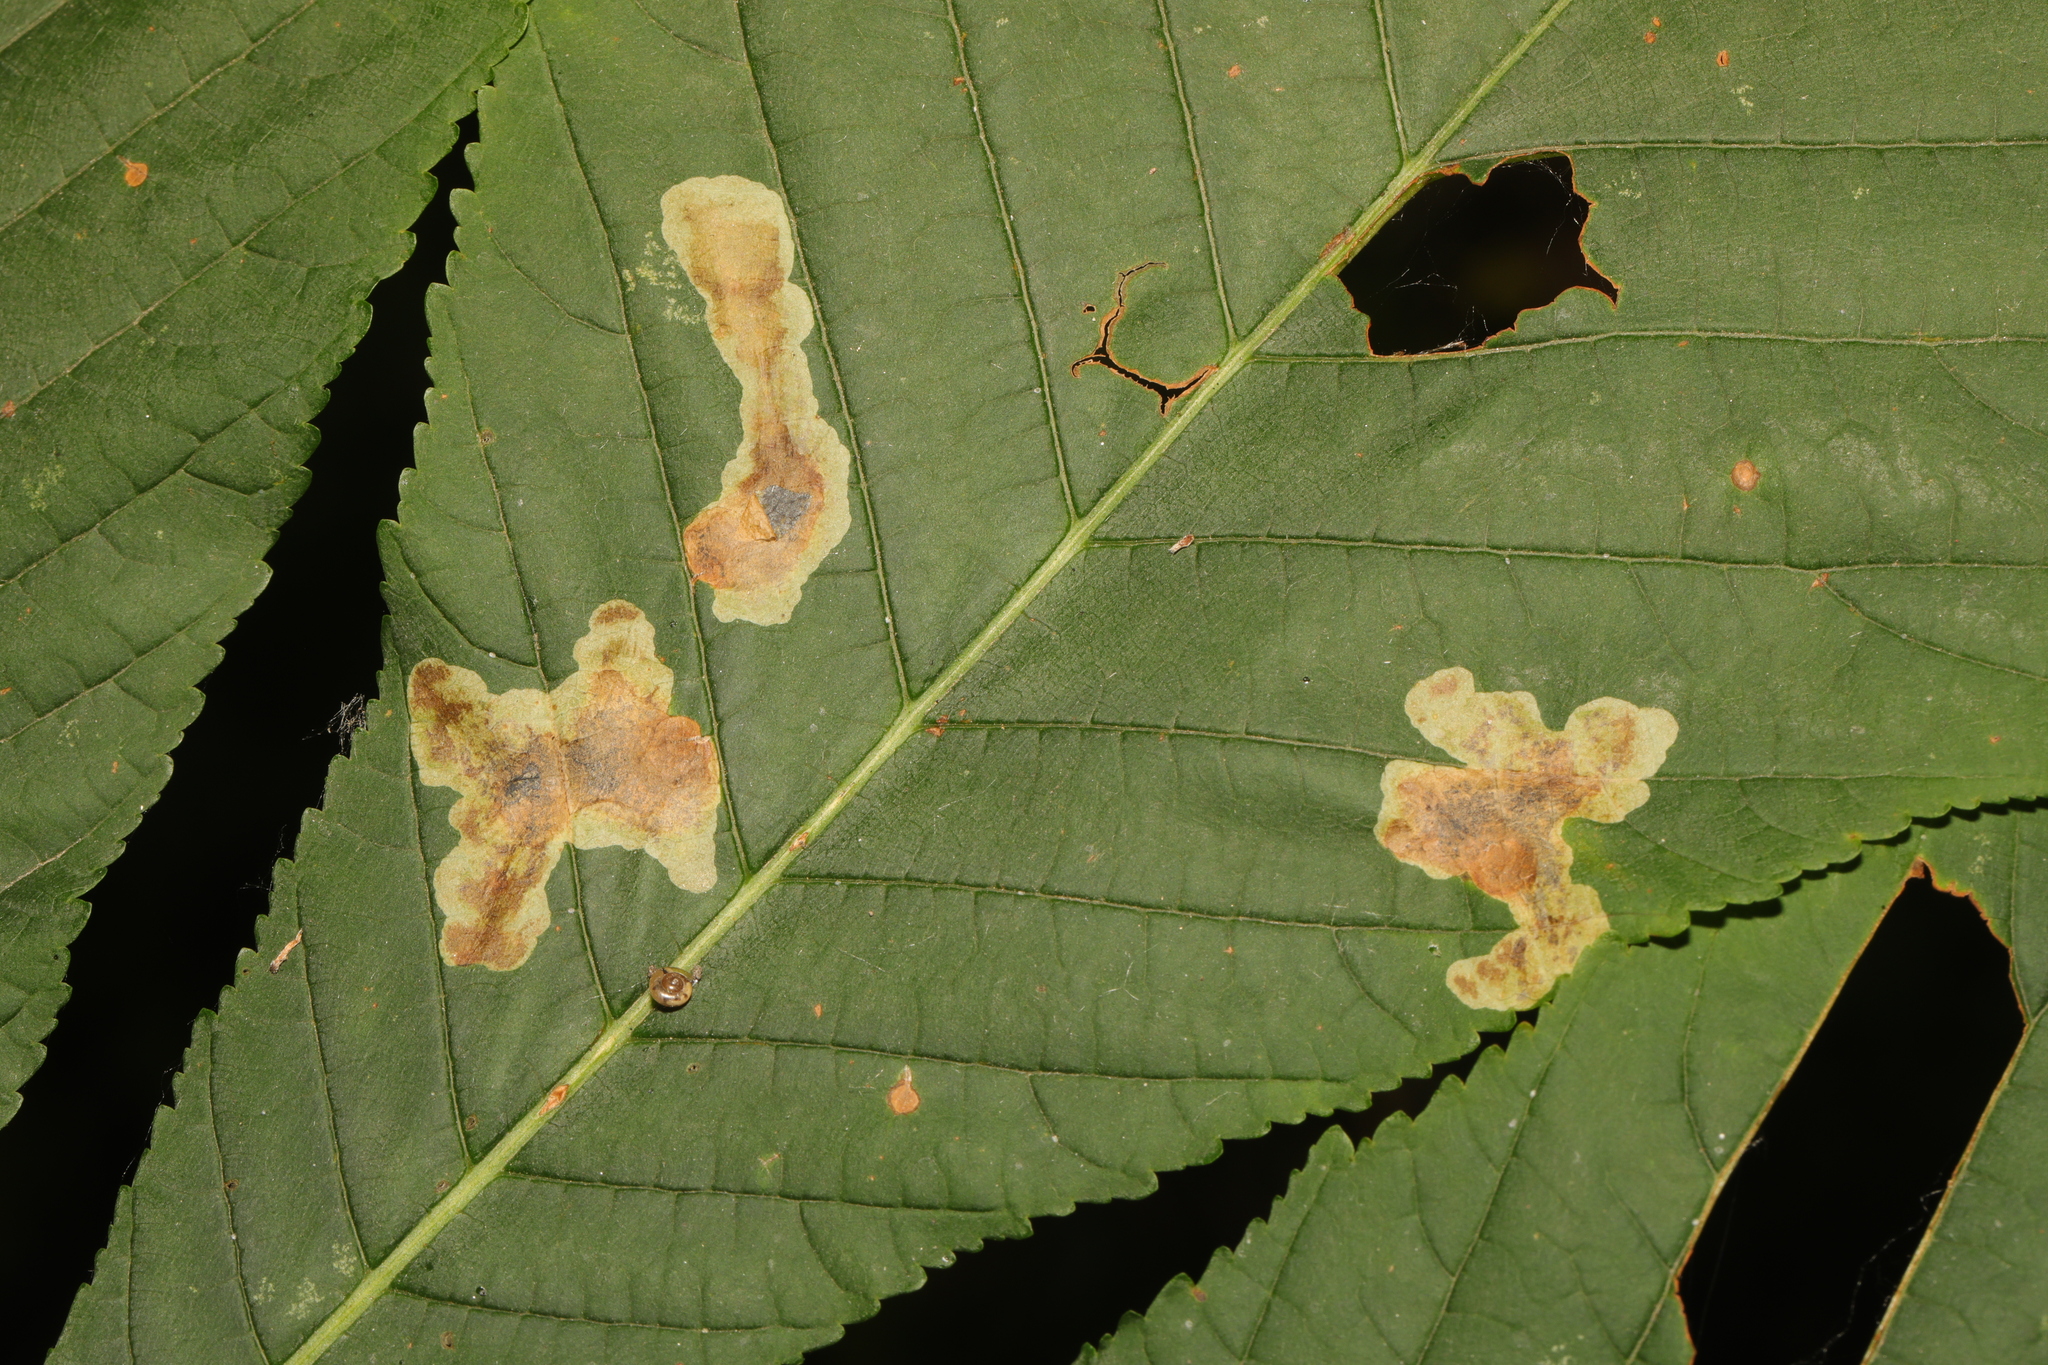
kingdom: Animalia
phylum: Arthropoda
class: Insecta
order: Lepidoptera
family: Gracillariidae
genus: Cameraria
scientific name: Cameraria ohridella
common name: Horse-chestnut leaf-miner
